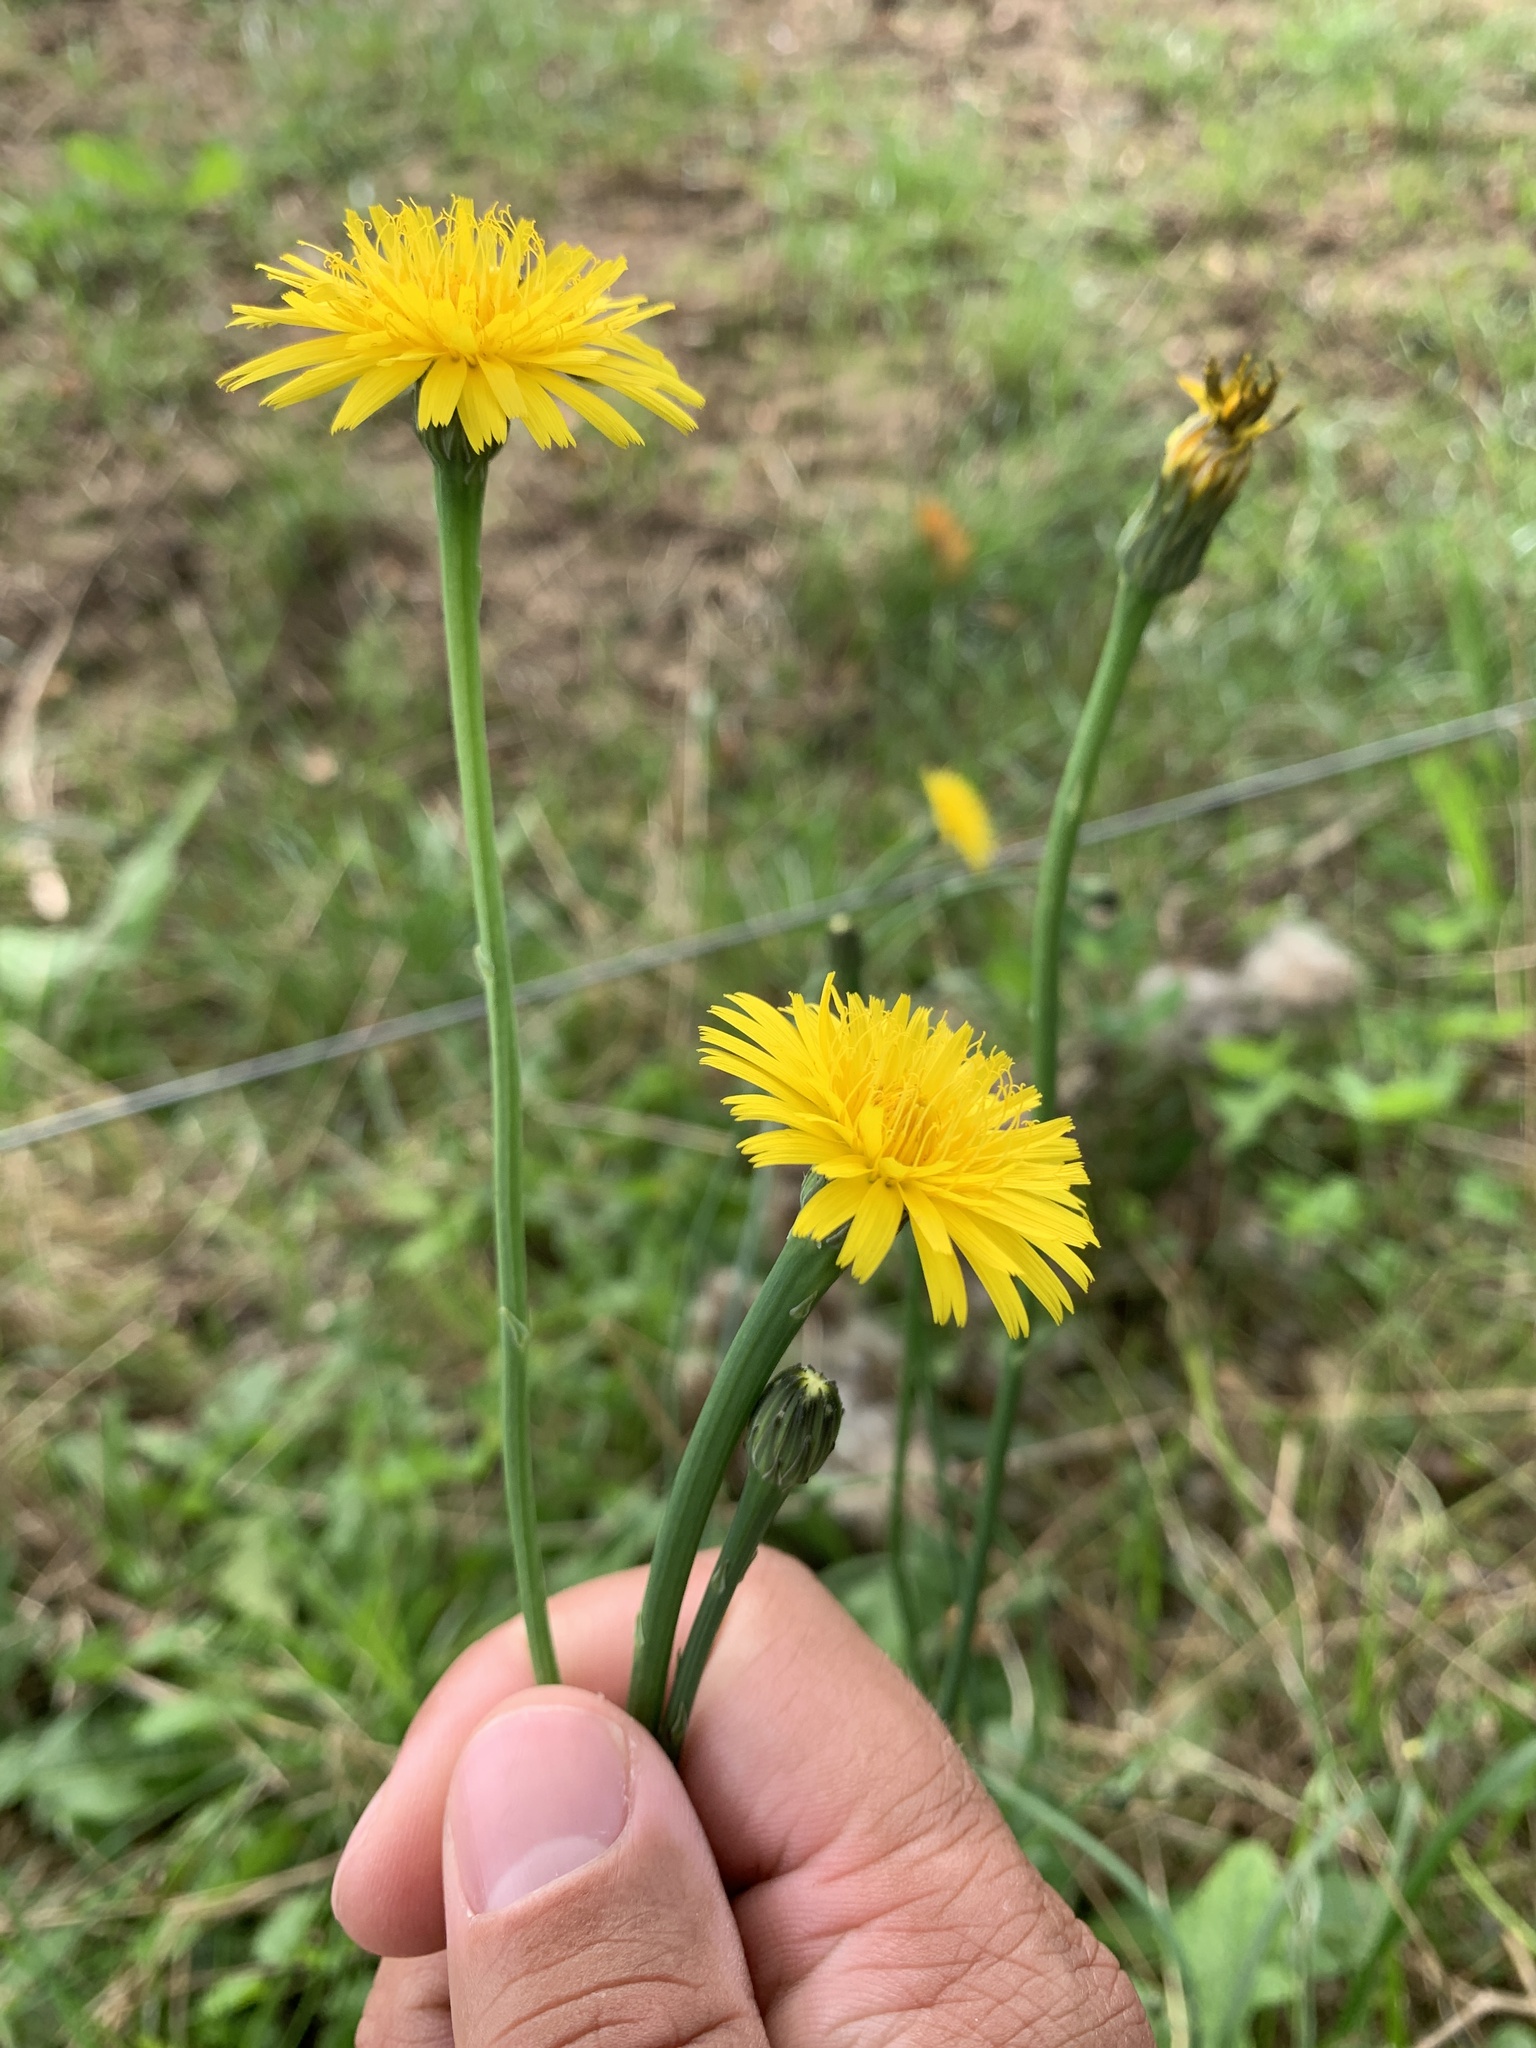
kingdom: Plantae
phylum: Tracheophyta
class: Magnoliopsida
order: Asterales
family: Asteraceae
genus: Hypochaeris
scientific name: Hypochaeris radicata
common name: Flatweed
